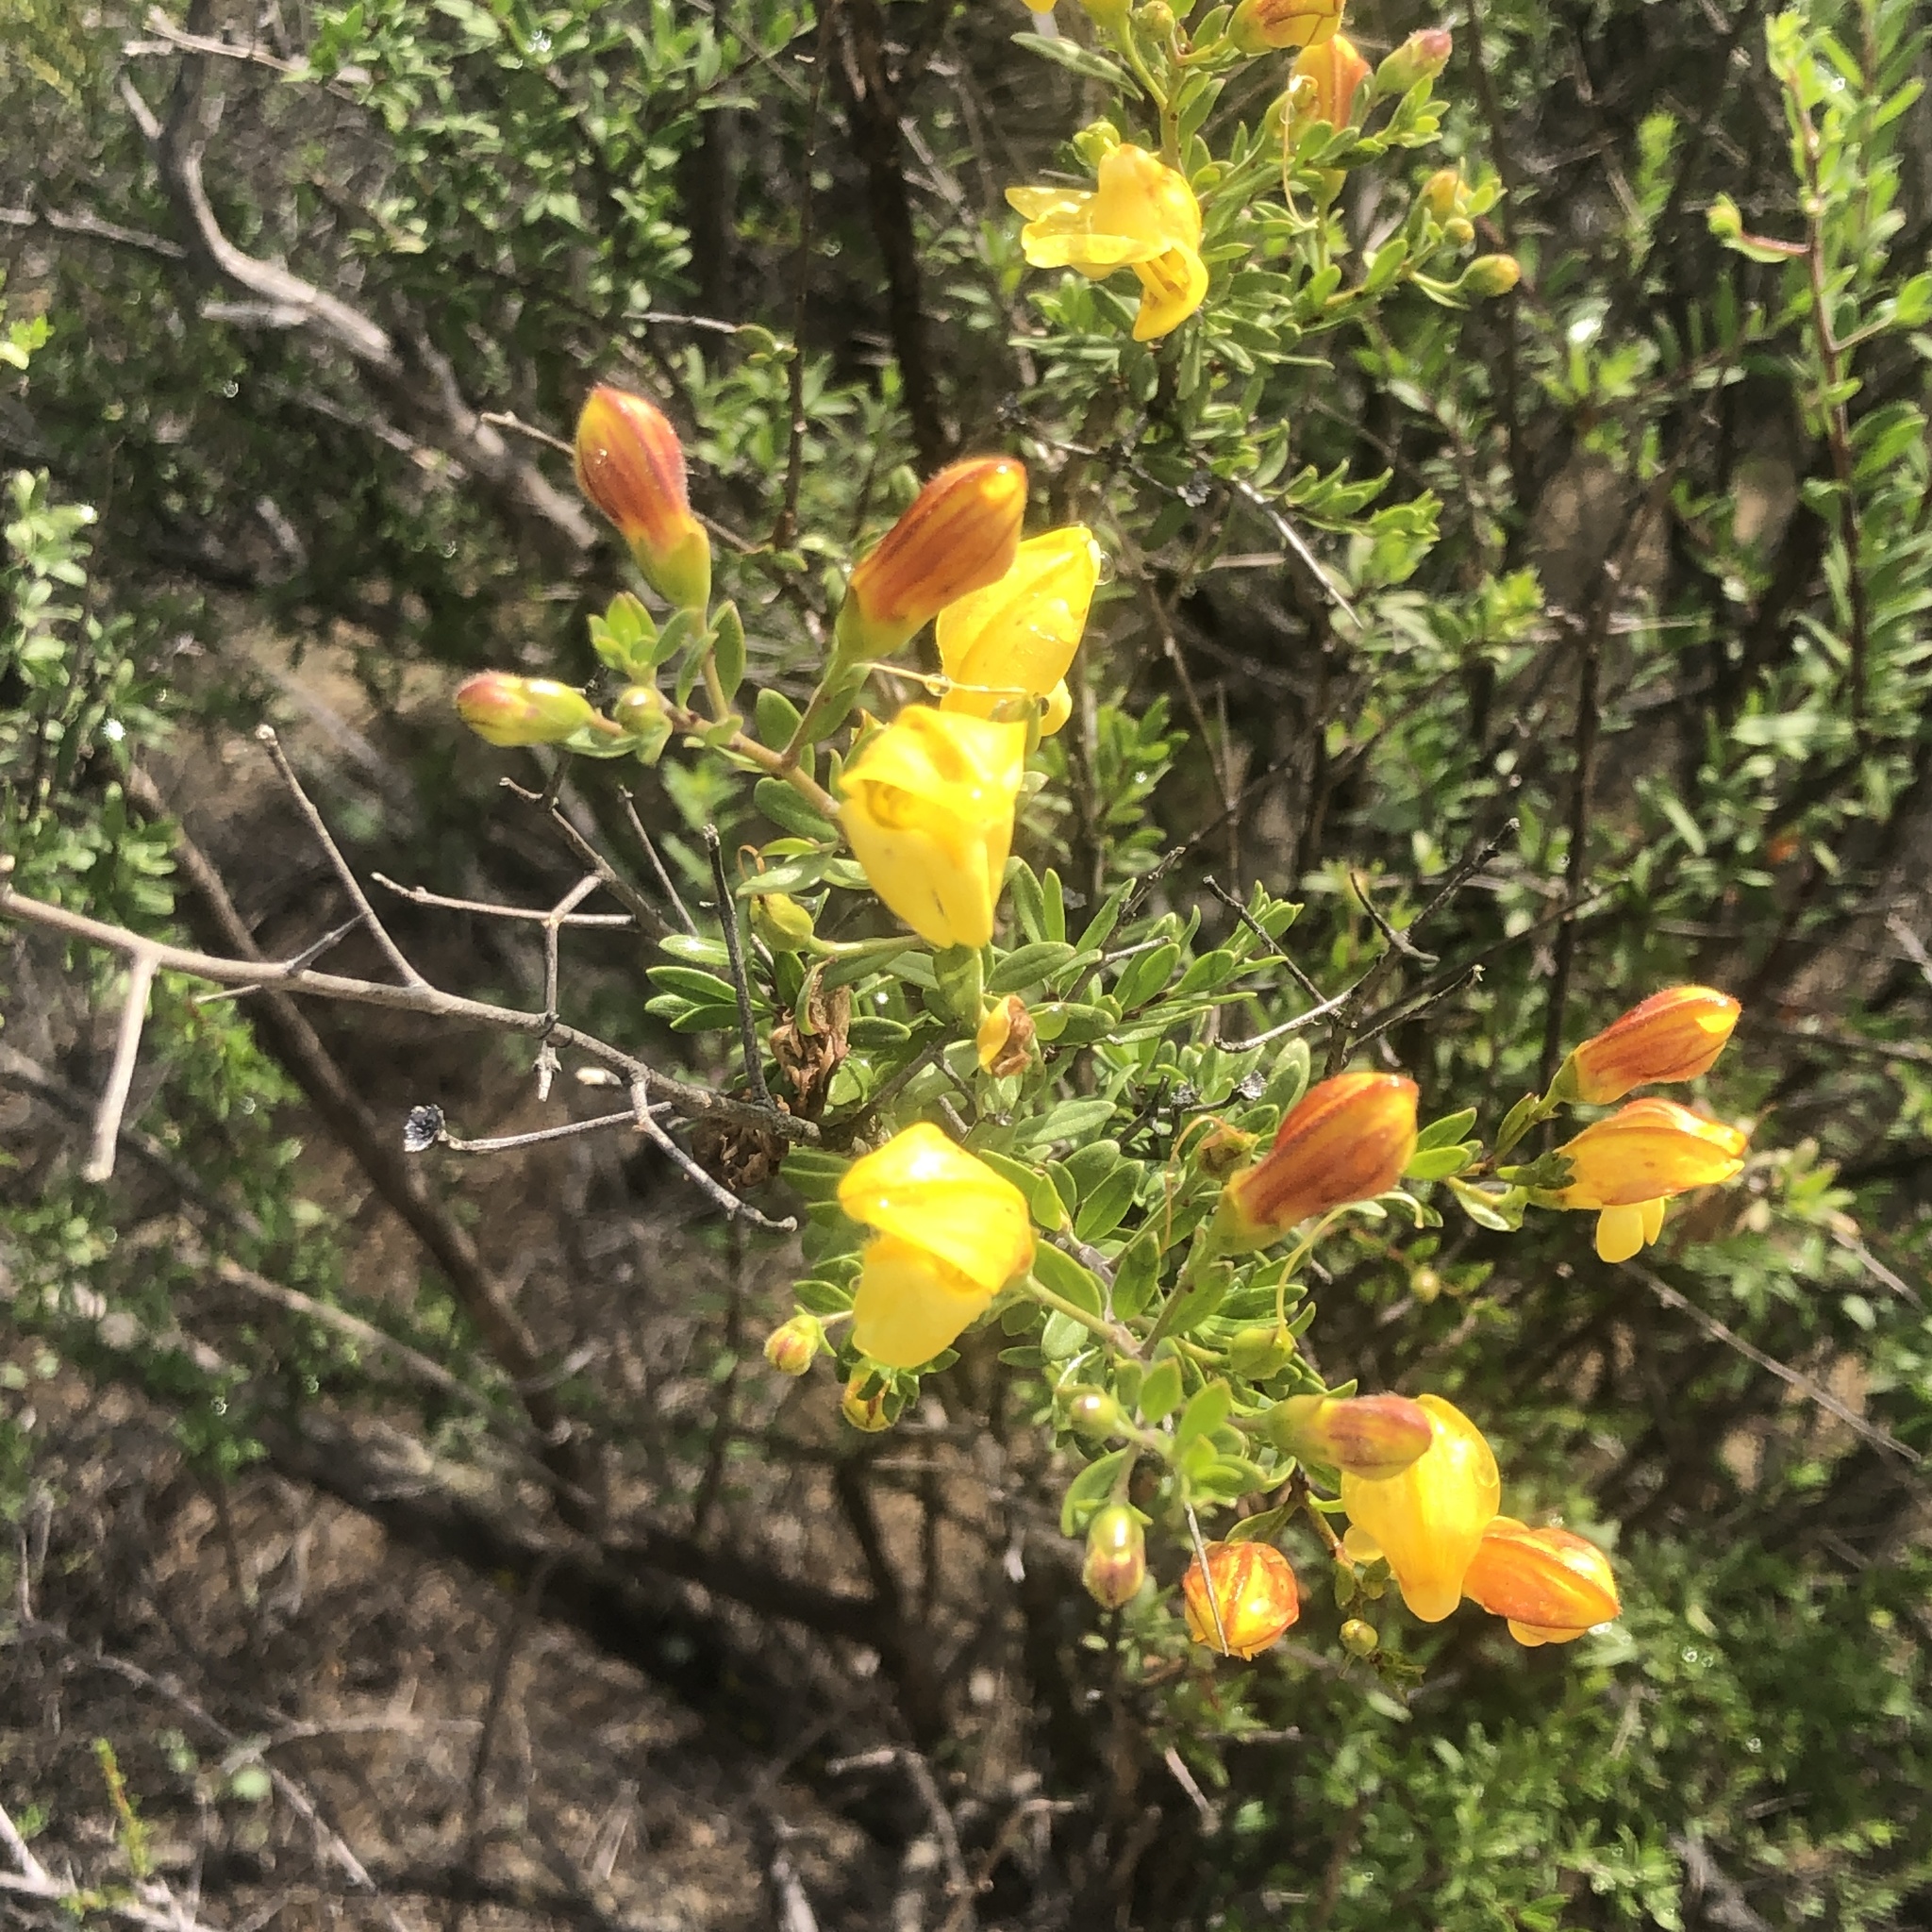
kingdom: Plantae
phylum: Tracheophyta
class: Magnoliopsida
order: Lamiales
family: Plantaginaceae
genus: Keckiella
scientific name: Keckiella antirrhinoides
